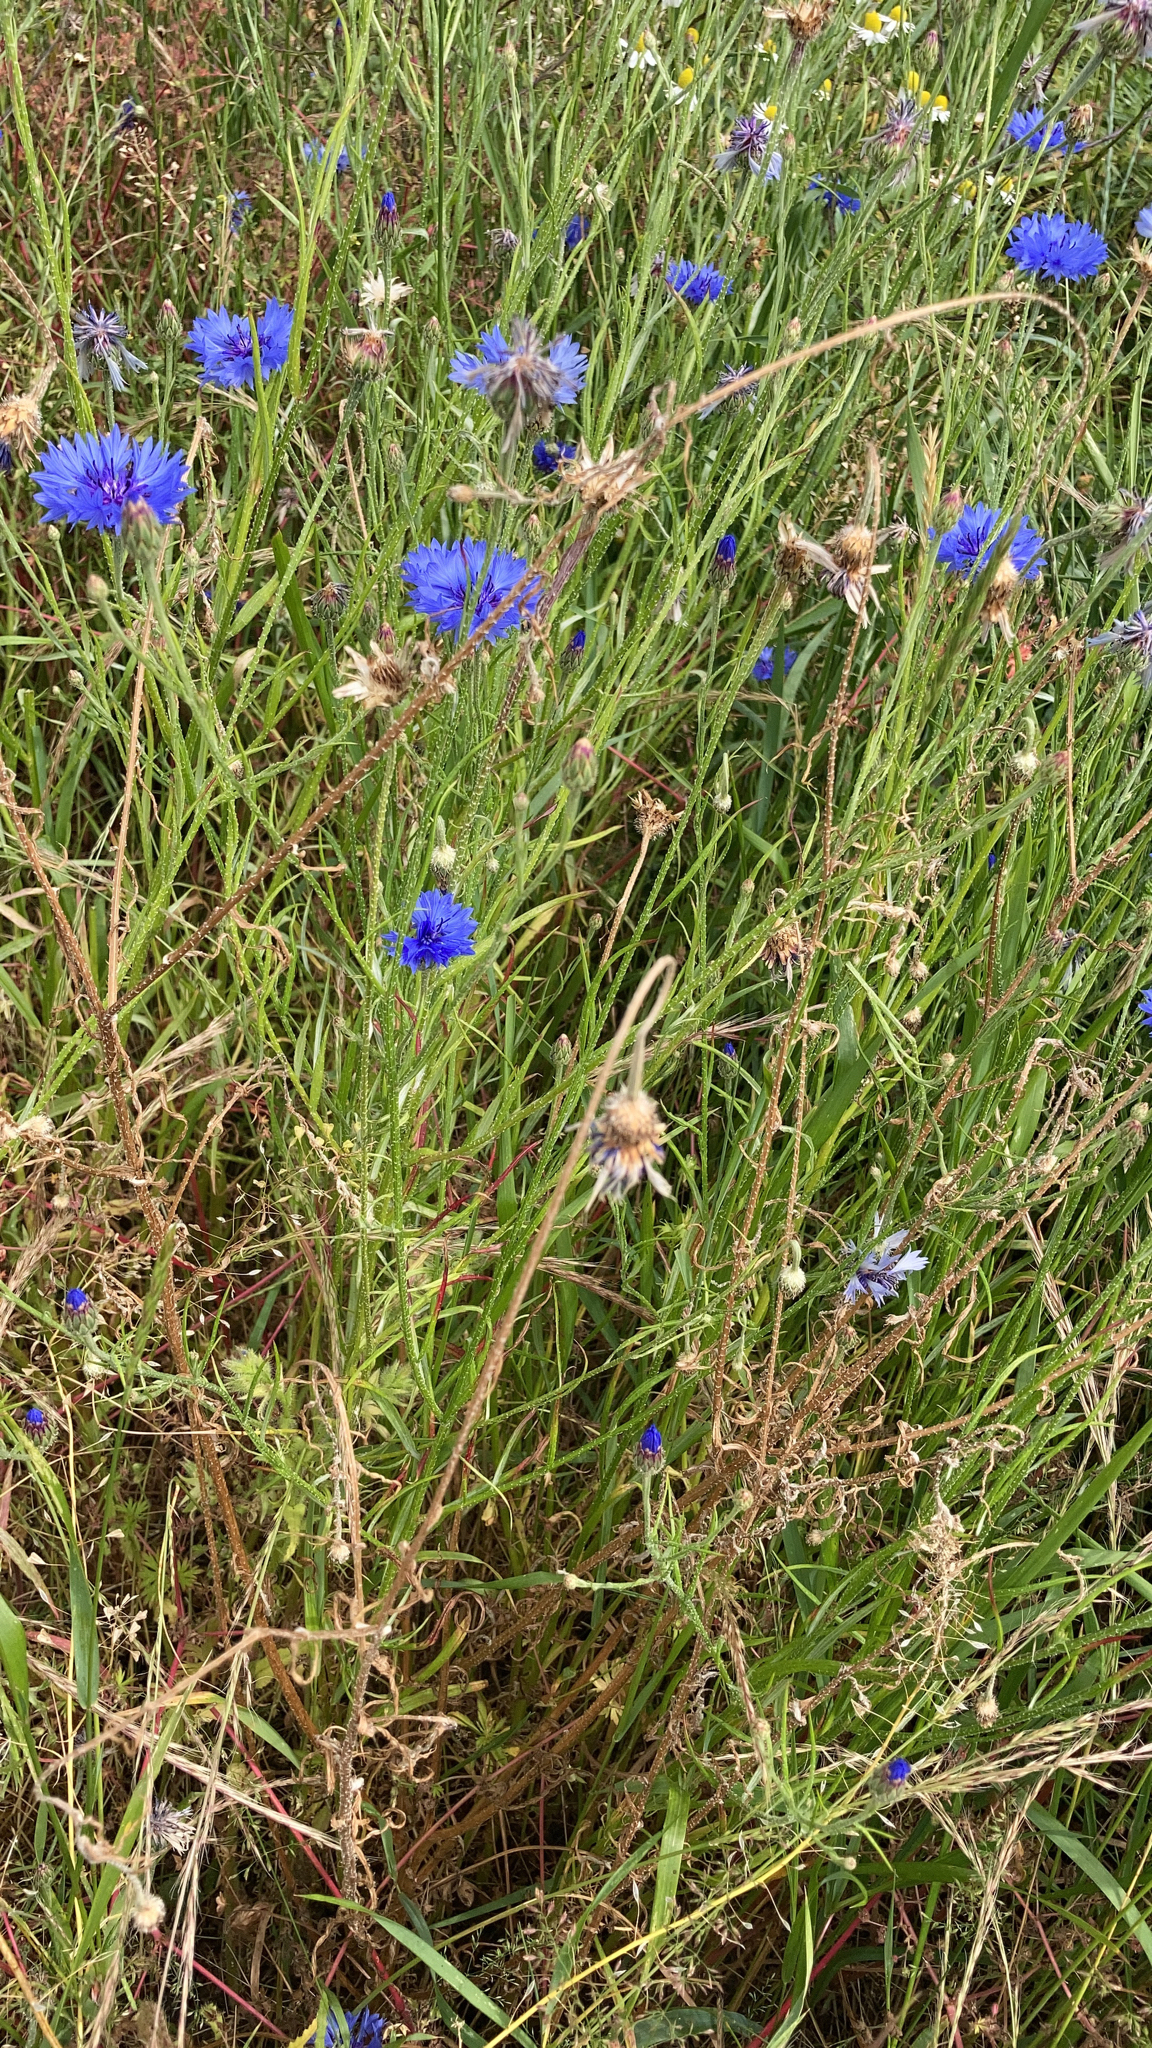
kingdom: Plantae
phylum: Tracheophyta
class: Magnoliopsida
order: Asterales
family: Asteraceae
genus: Centaurea
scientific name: Centaurea cyanus
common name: Cornflower
